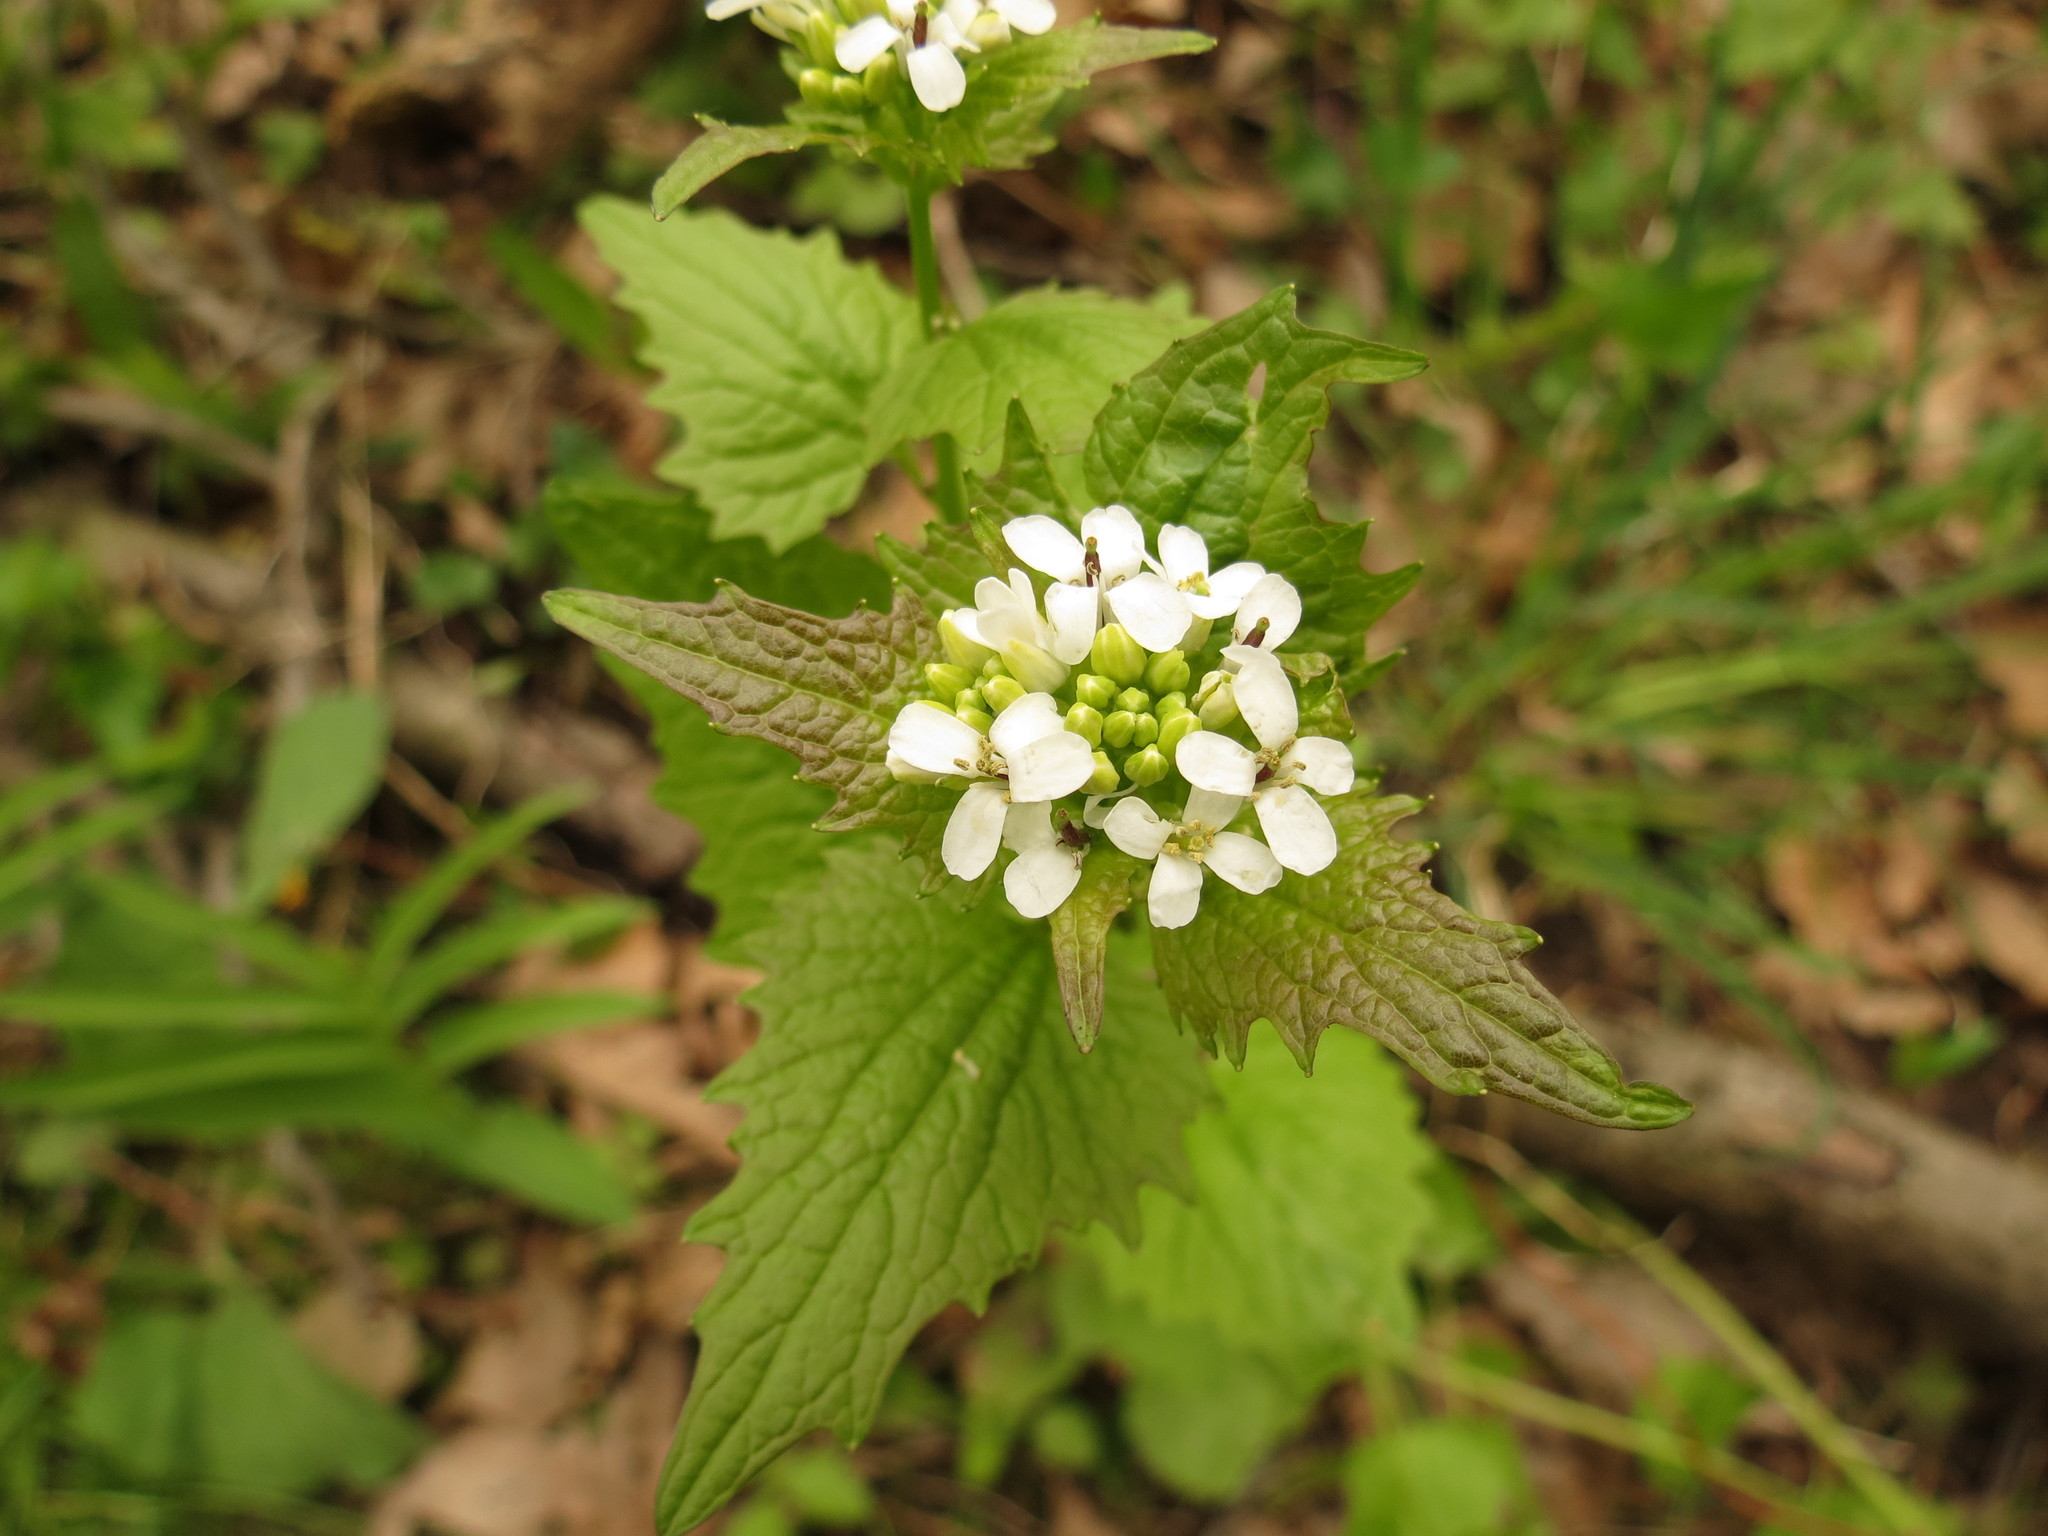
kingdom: Plantae
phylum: Tracheophyta
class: Magnoliopsida
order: Brassicales
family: Brassicaceae
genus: Alliaria
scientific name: Alliaria petiolata
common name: Garlic mustard
